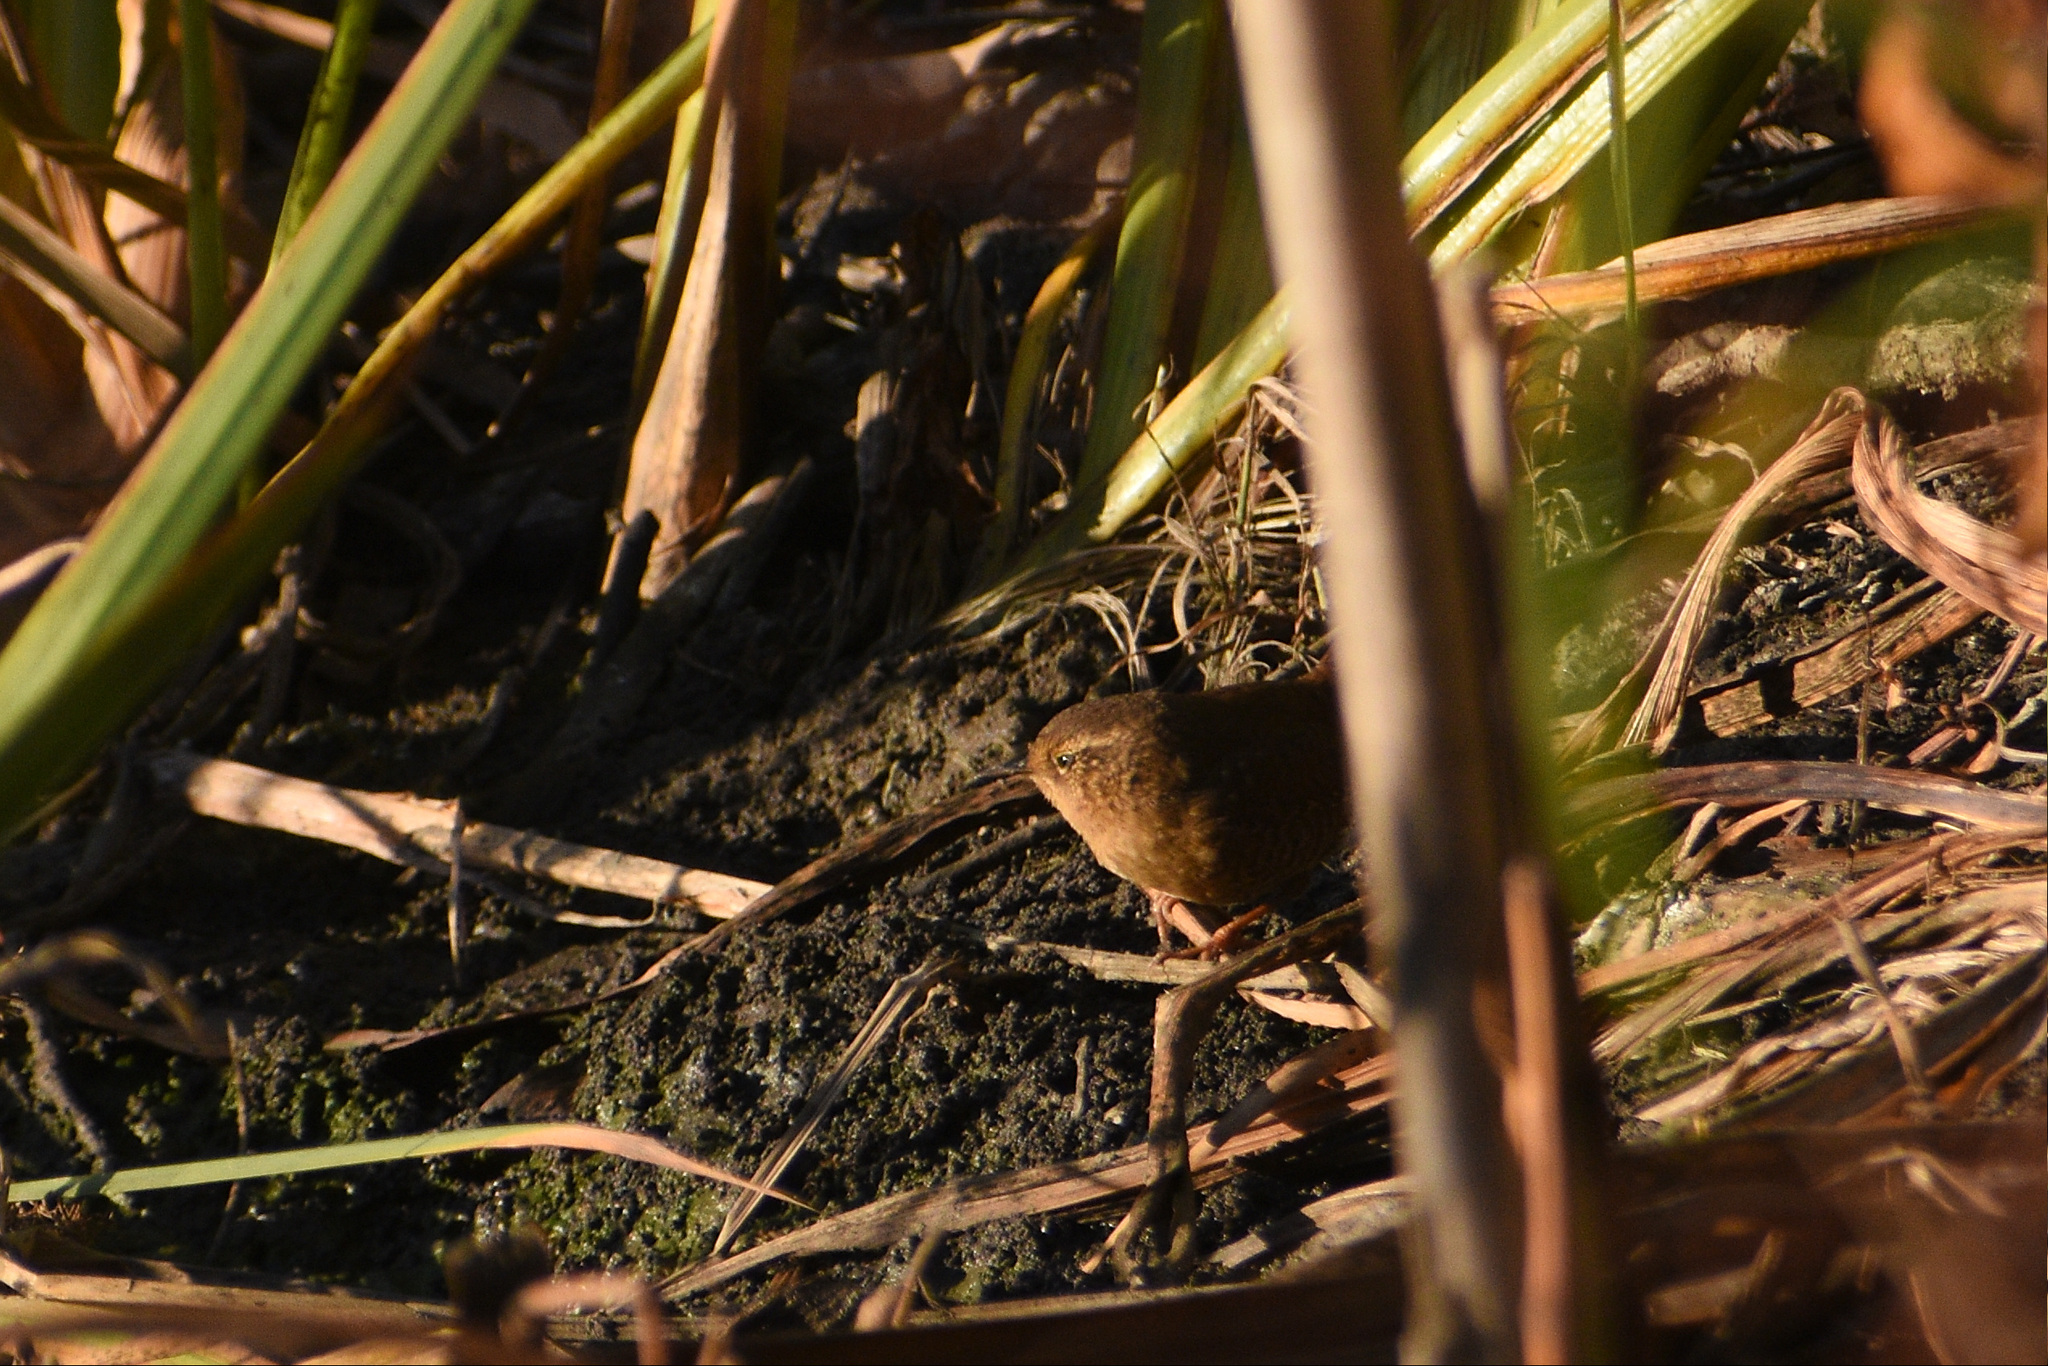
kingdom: Animalia
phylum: Chordata
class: Aves
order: Passeriformes
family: Troglodytidae
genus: Troglodytes
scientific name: Troglodytes pacificus
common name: Pacific wren
